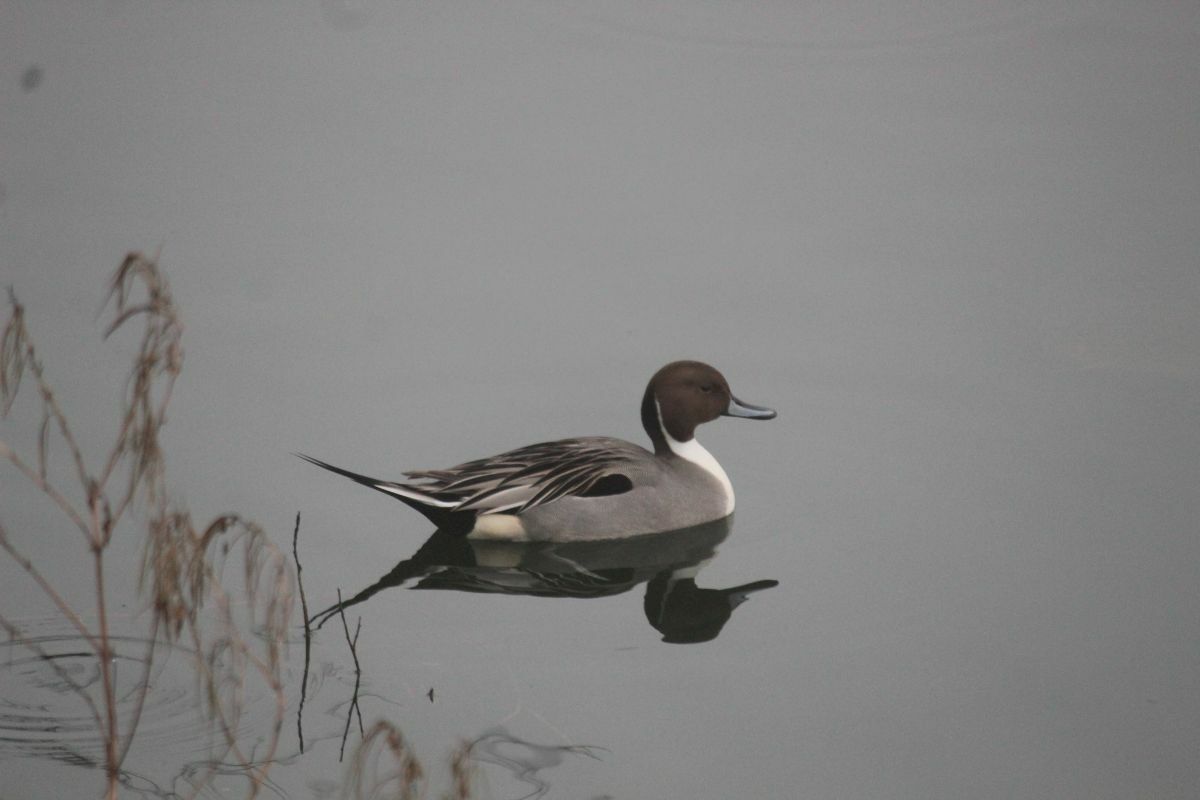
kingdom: Animalia
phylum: Chordata
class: Aves
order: Anseriformes
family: Anatidae
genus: Anas
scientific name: Anas acuta
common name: Northern pintail
